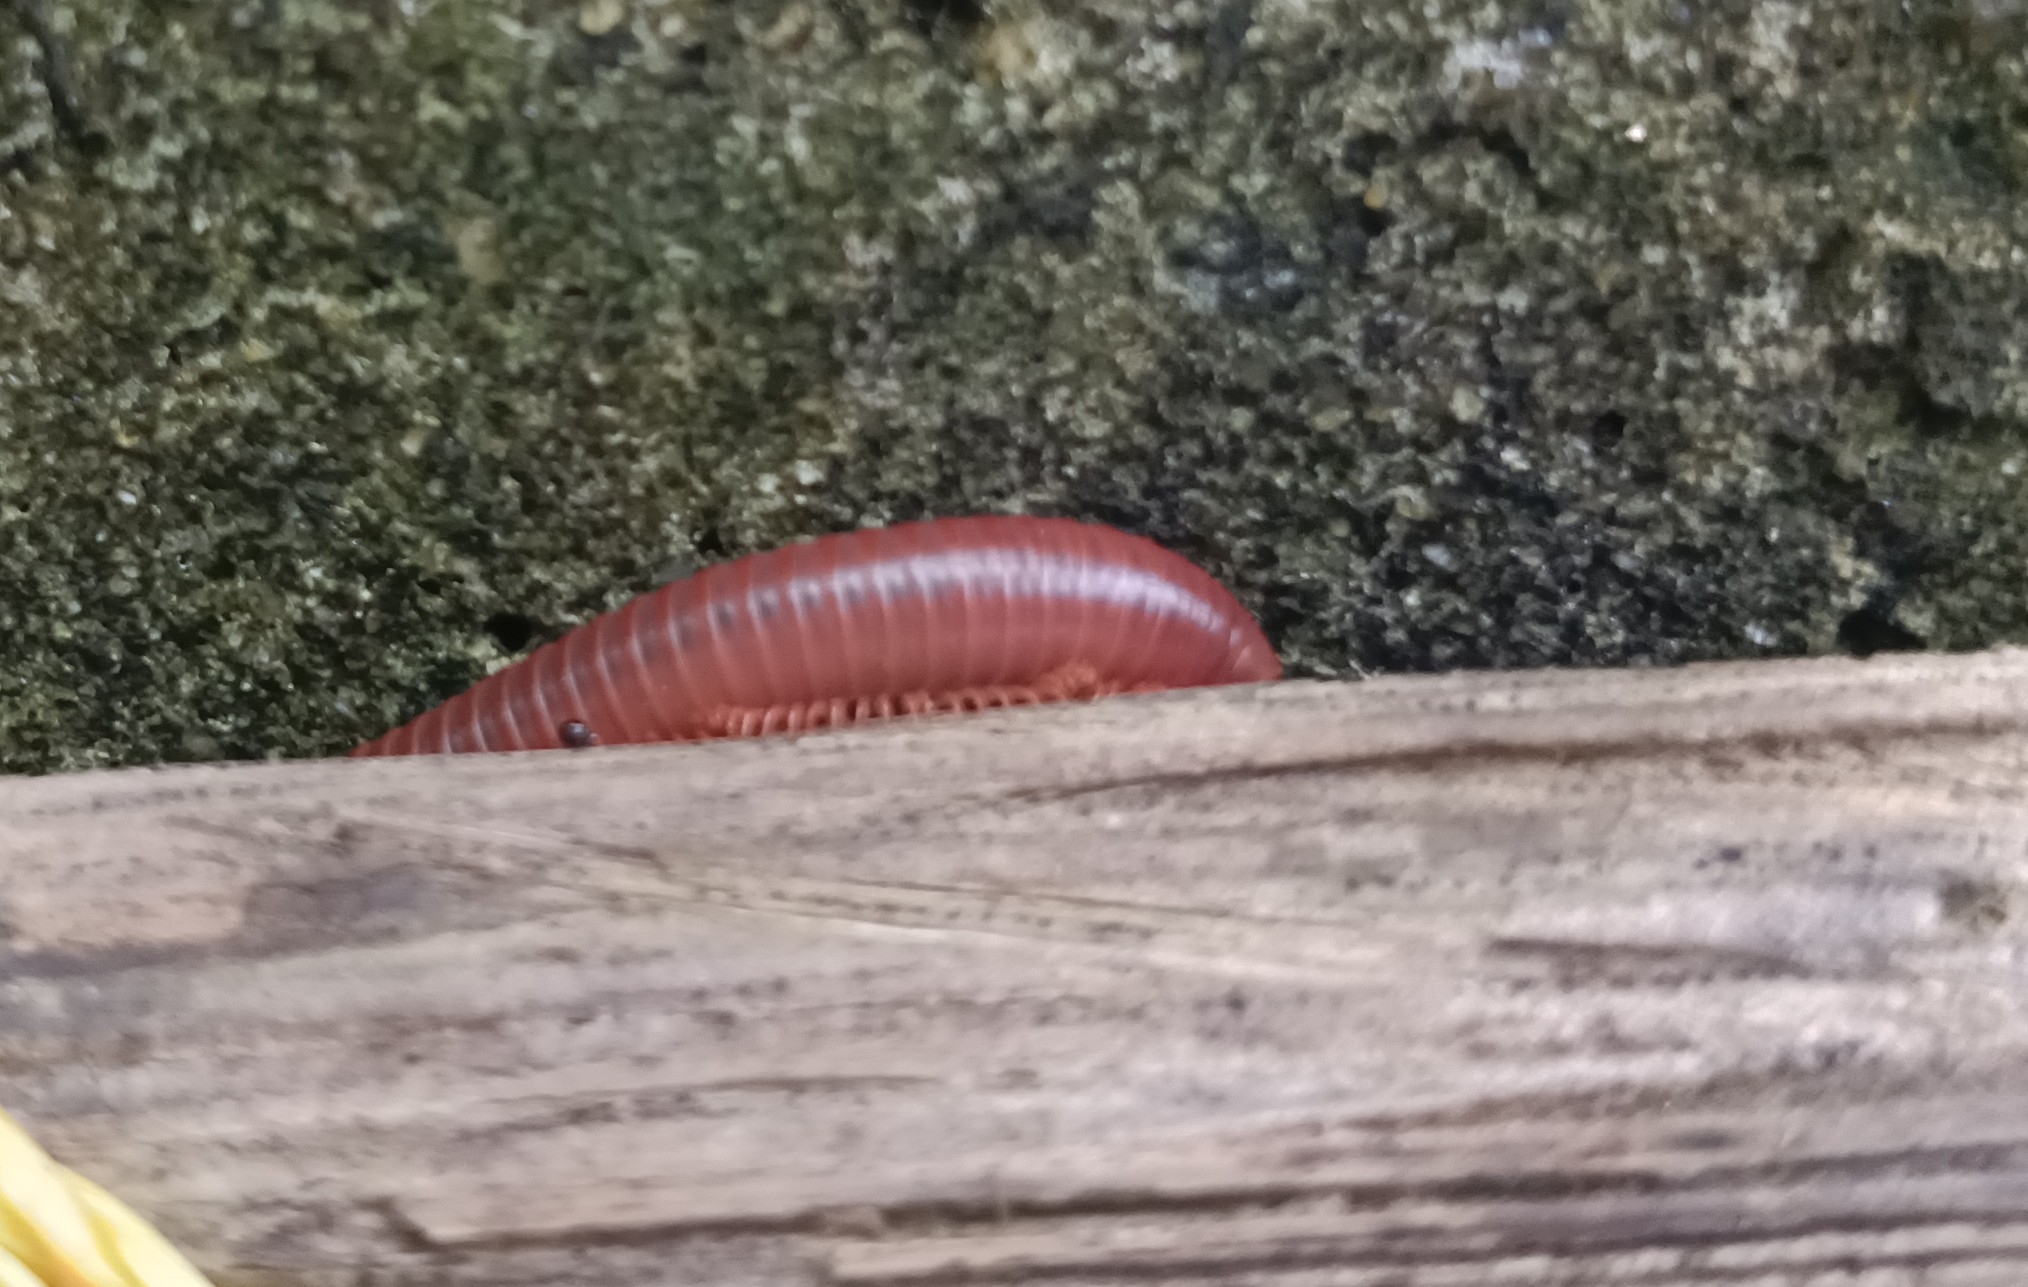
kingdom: Animalia
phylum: Arthropoda
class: Diplopoda
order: Spirobolida
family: Pachybolidae
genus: Trigoniulus
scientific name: Trigoniulus corallinus
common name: Millipede
